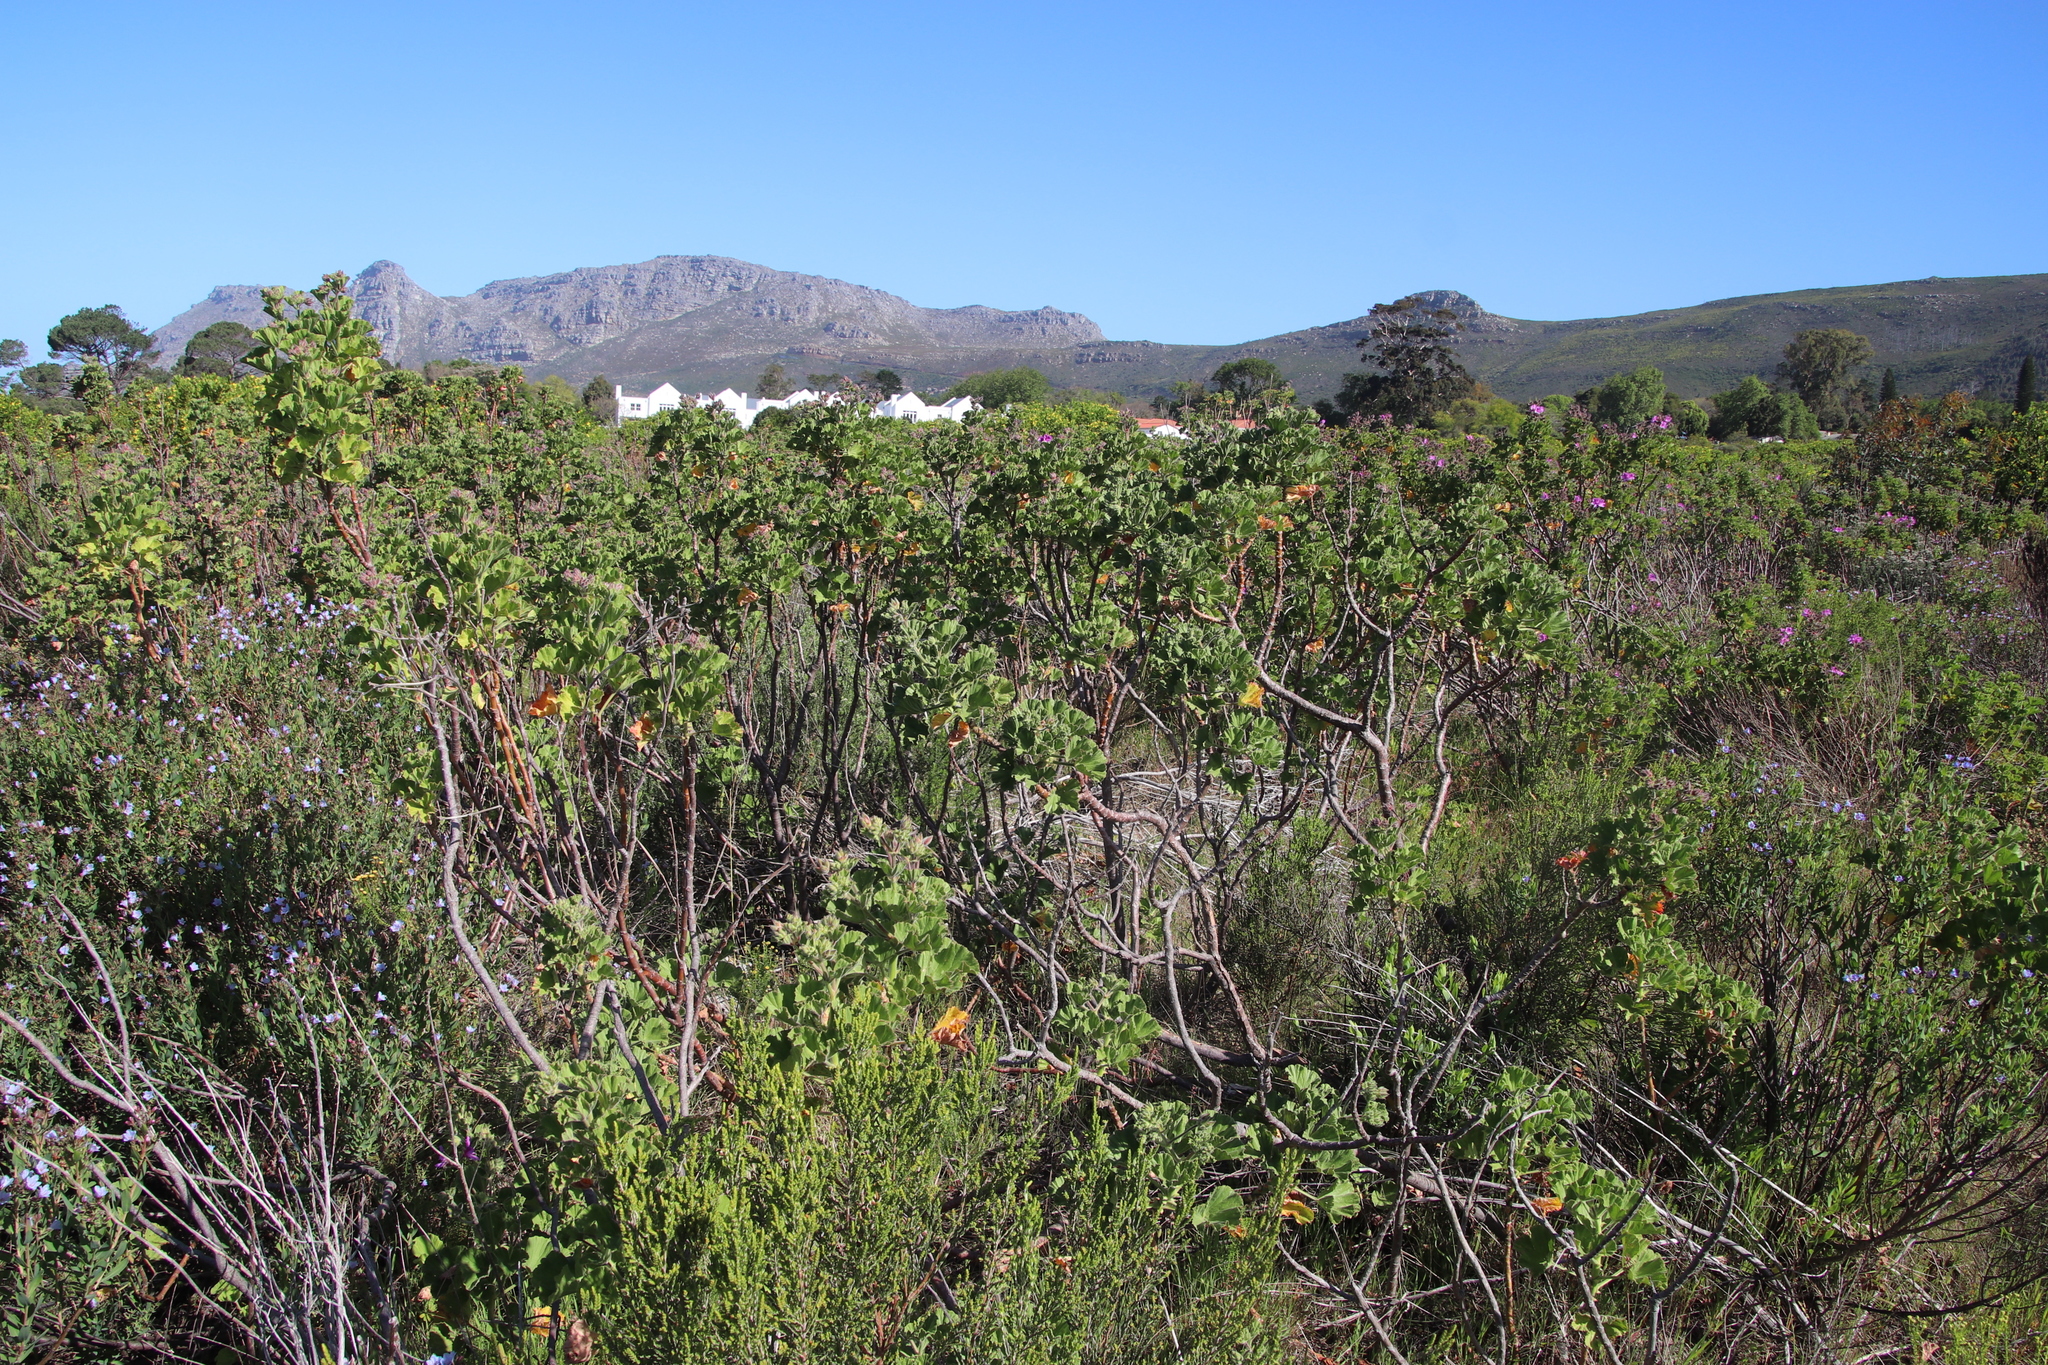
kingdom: Plantae
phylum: Tracheophyta
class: Magnoliopsida
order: Geraniales
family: Geraniaceae
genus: Pelargonium
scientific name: Pelargonium cucullatum
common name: Tree pelargonium
